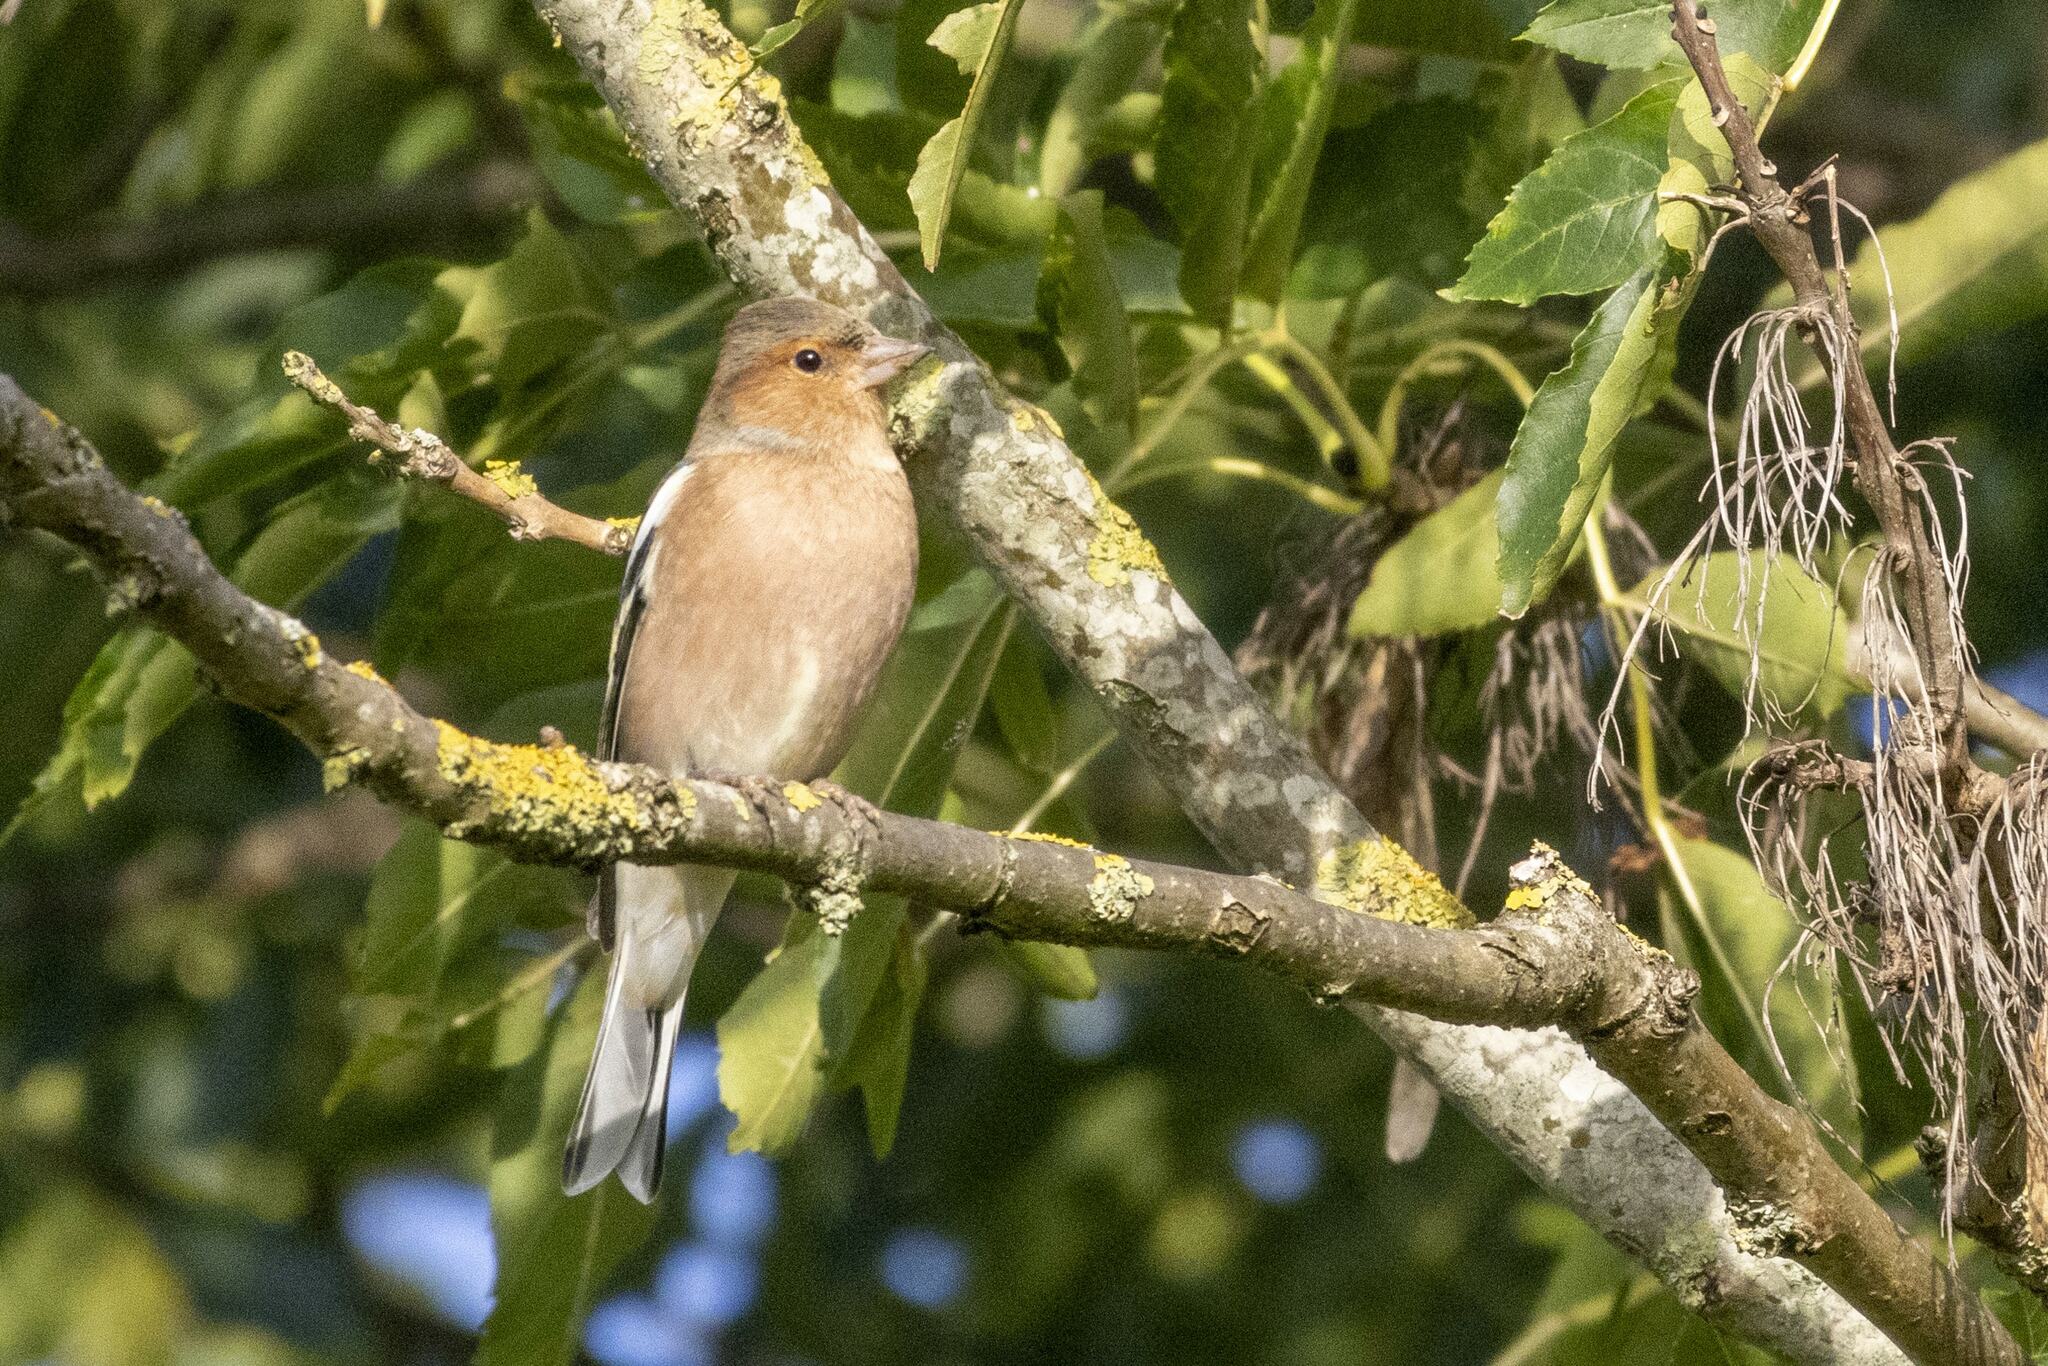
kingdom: Animalia
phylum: Chordata
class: Aves
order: Passeriformes
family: Fringillidae
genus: Fringilla
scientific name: Fringilla coelebs
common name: Common chaffinch
